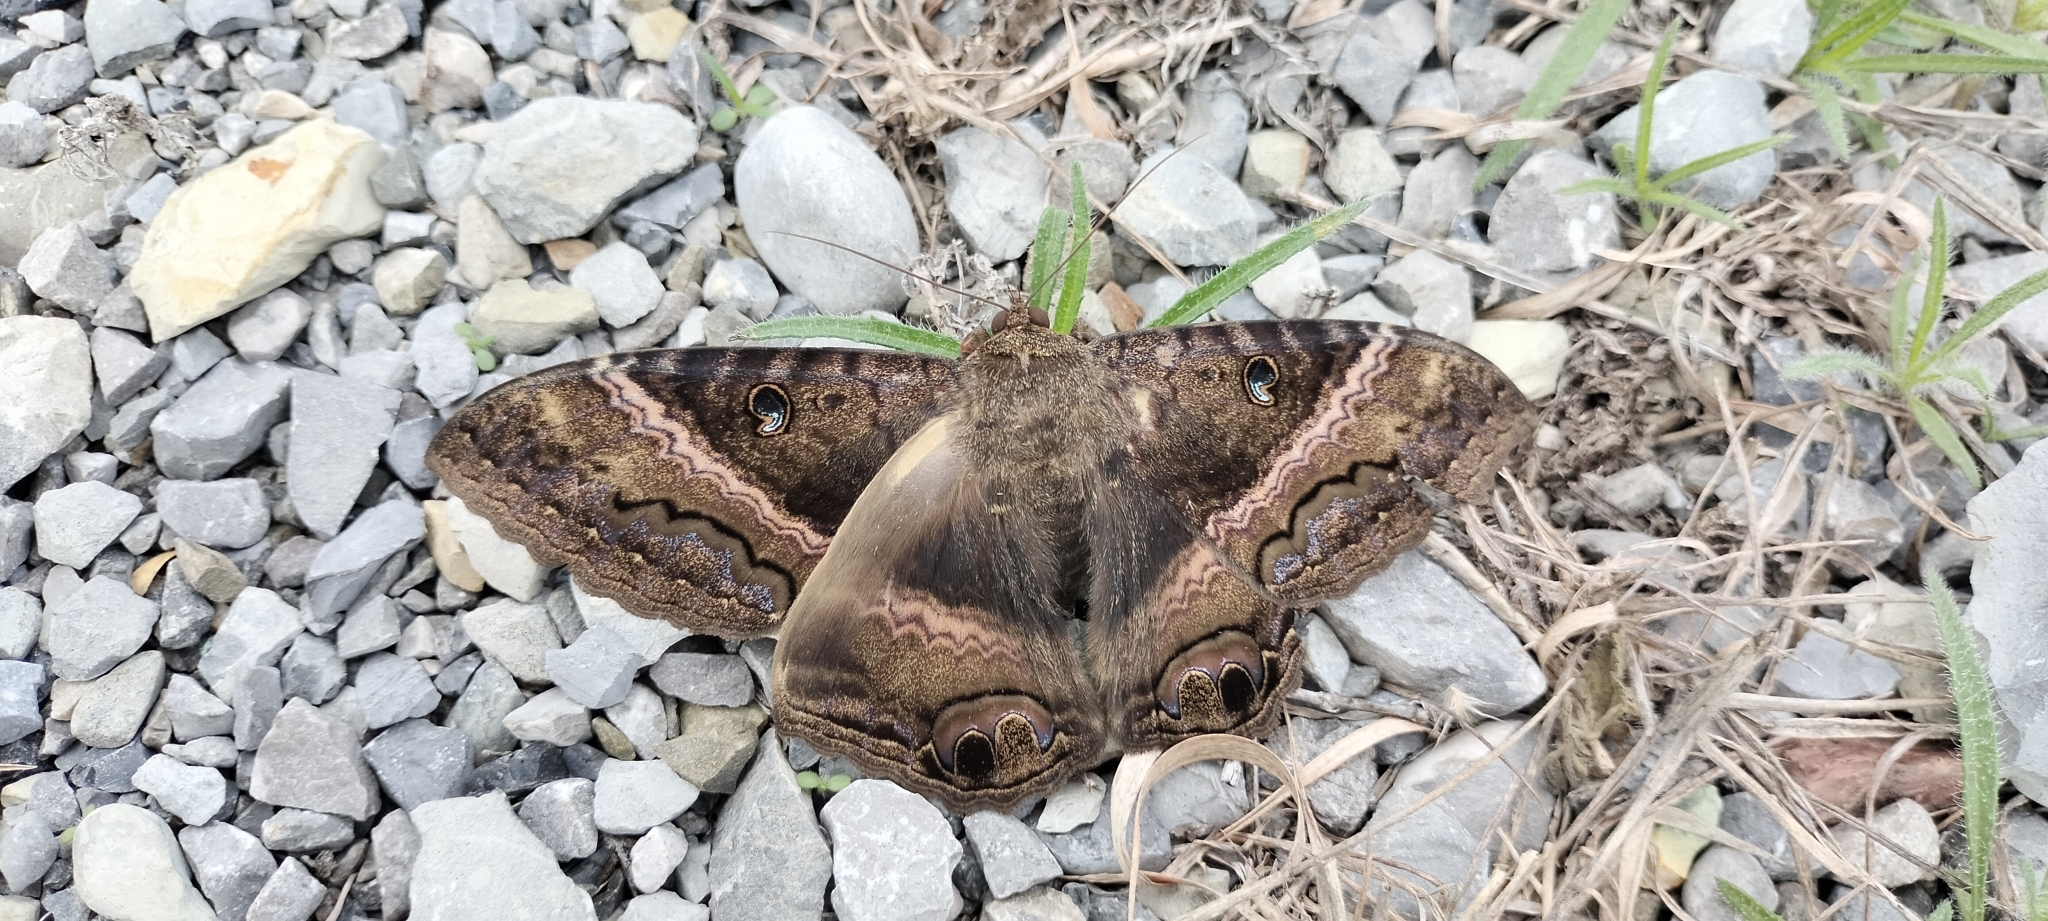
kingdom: Animalia
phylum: Arthropoda
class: Insecta
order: Lepidoptera
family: Erebidae
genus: Ascalapha
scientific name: Ascalapha odorata
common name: Black witch
